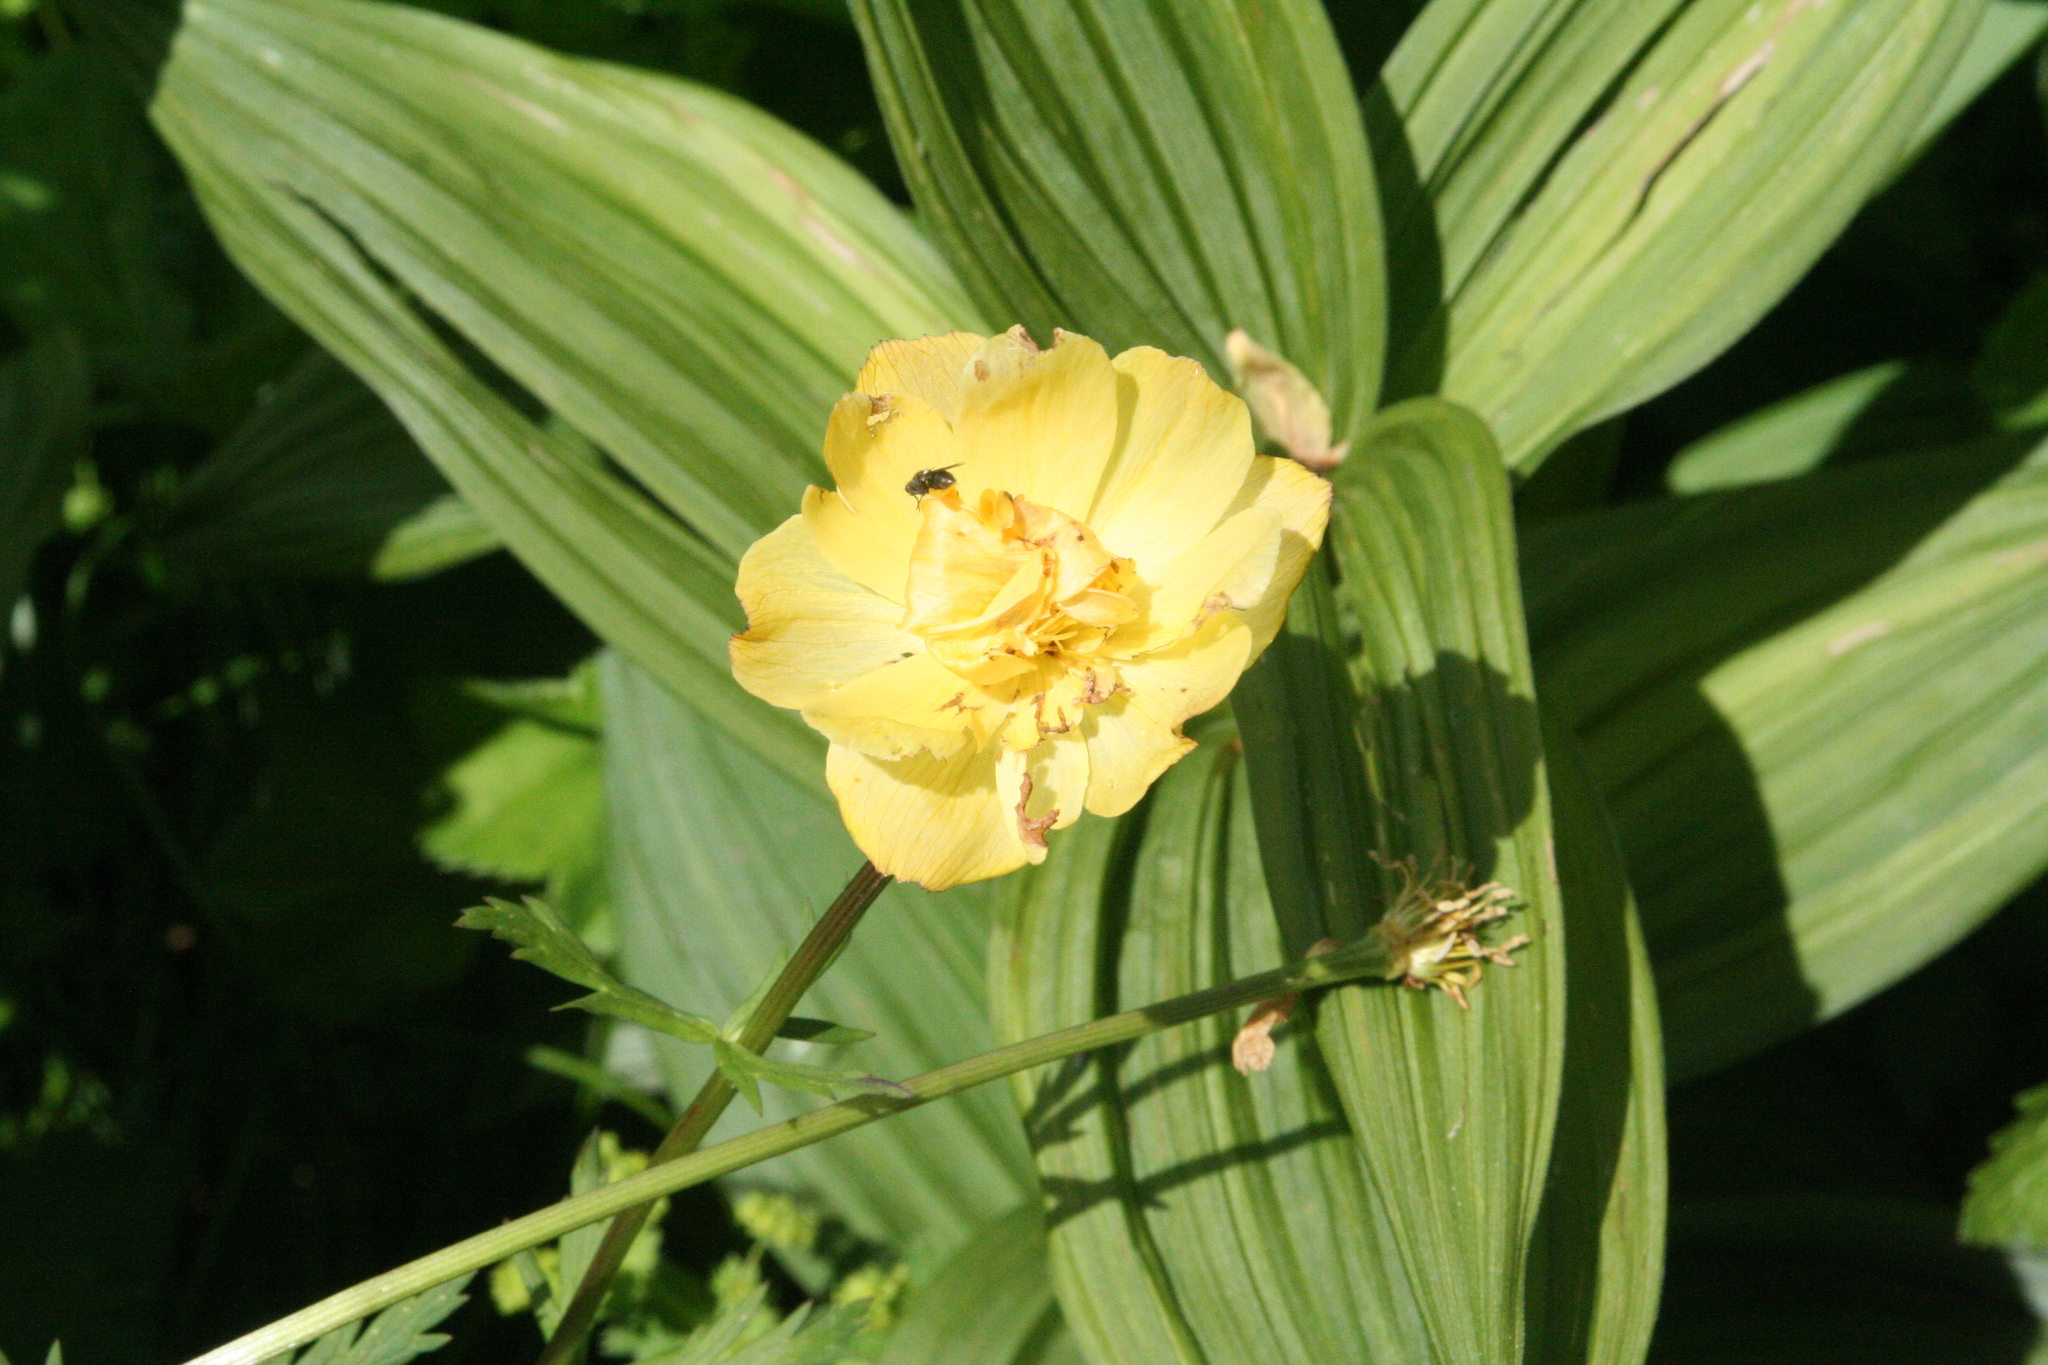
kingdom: Plantae
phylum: Tracheophyta
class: Magnoliopsida
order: Ranunculales
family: Ranunculaceae
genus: Trollius
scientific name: Trollius asiaticus
